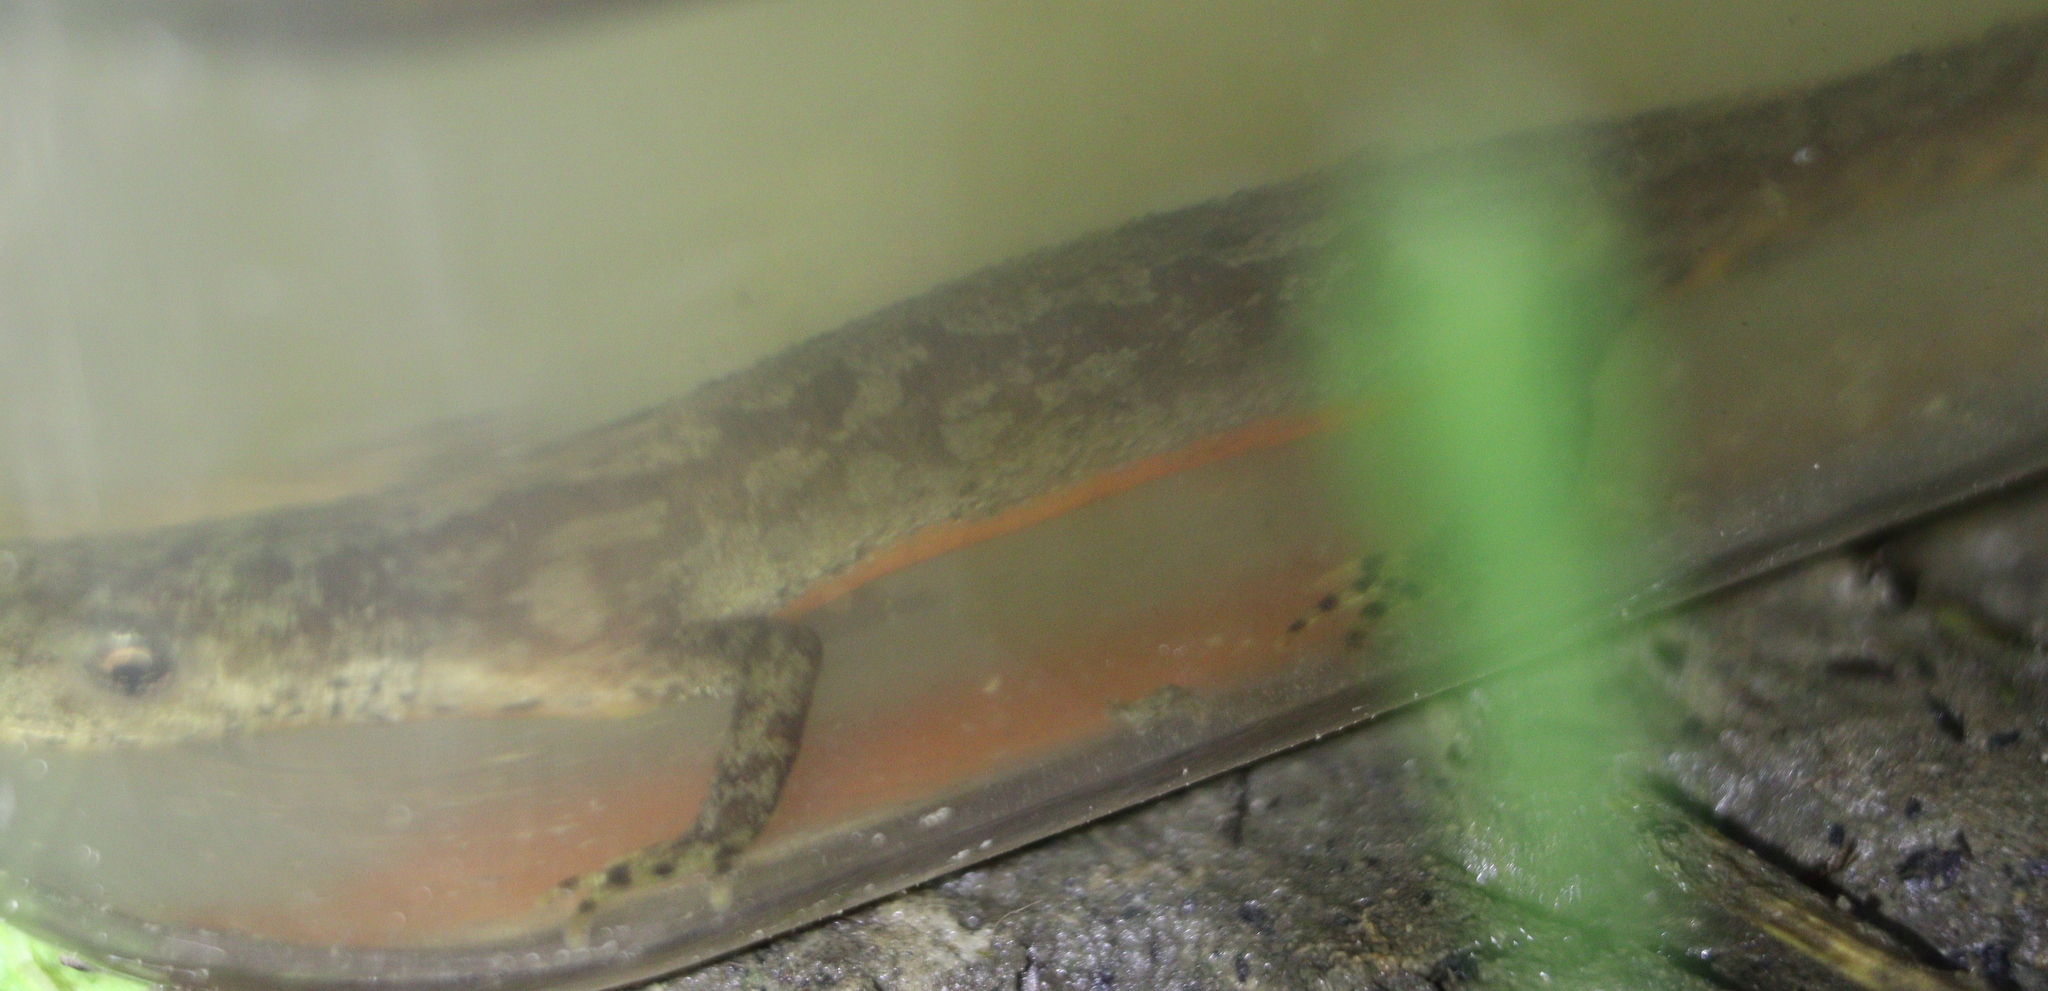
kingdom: Animalia
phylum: Chordata
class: Amphibia
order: Caudata
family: Salamandridae
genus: Ichthyosaura
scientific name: Ichthyosaura alpestris
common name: Alpine newt
